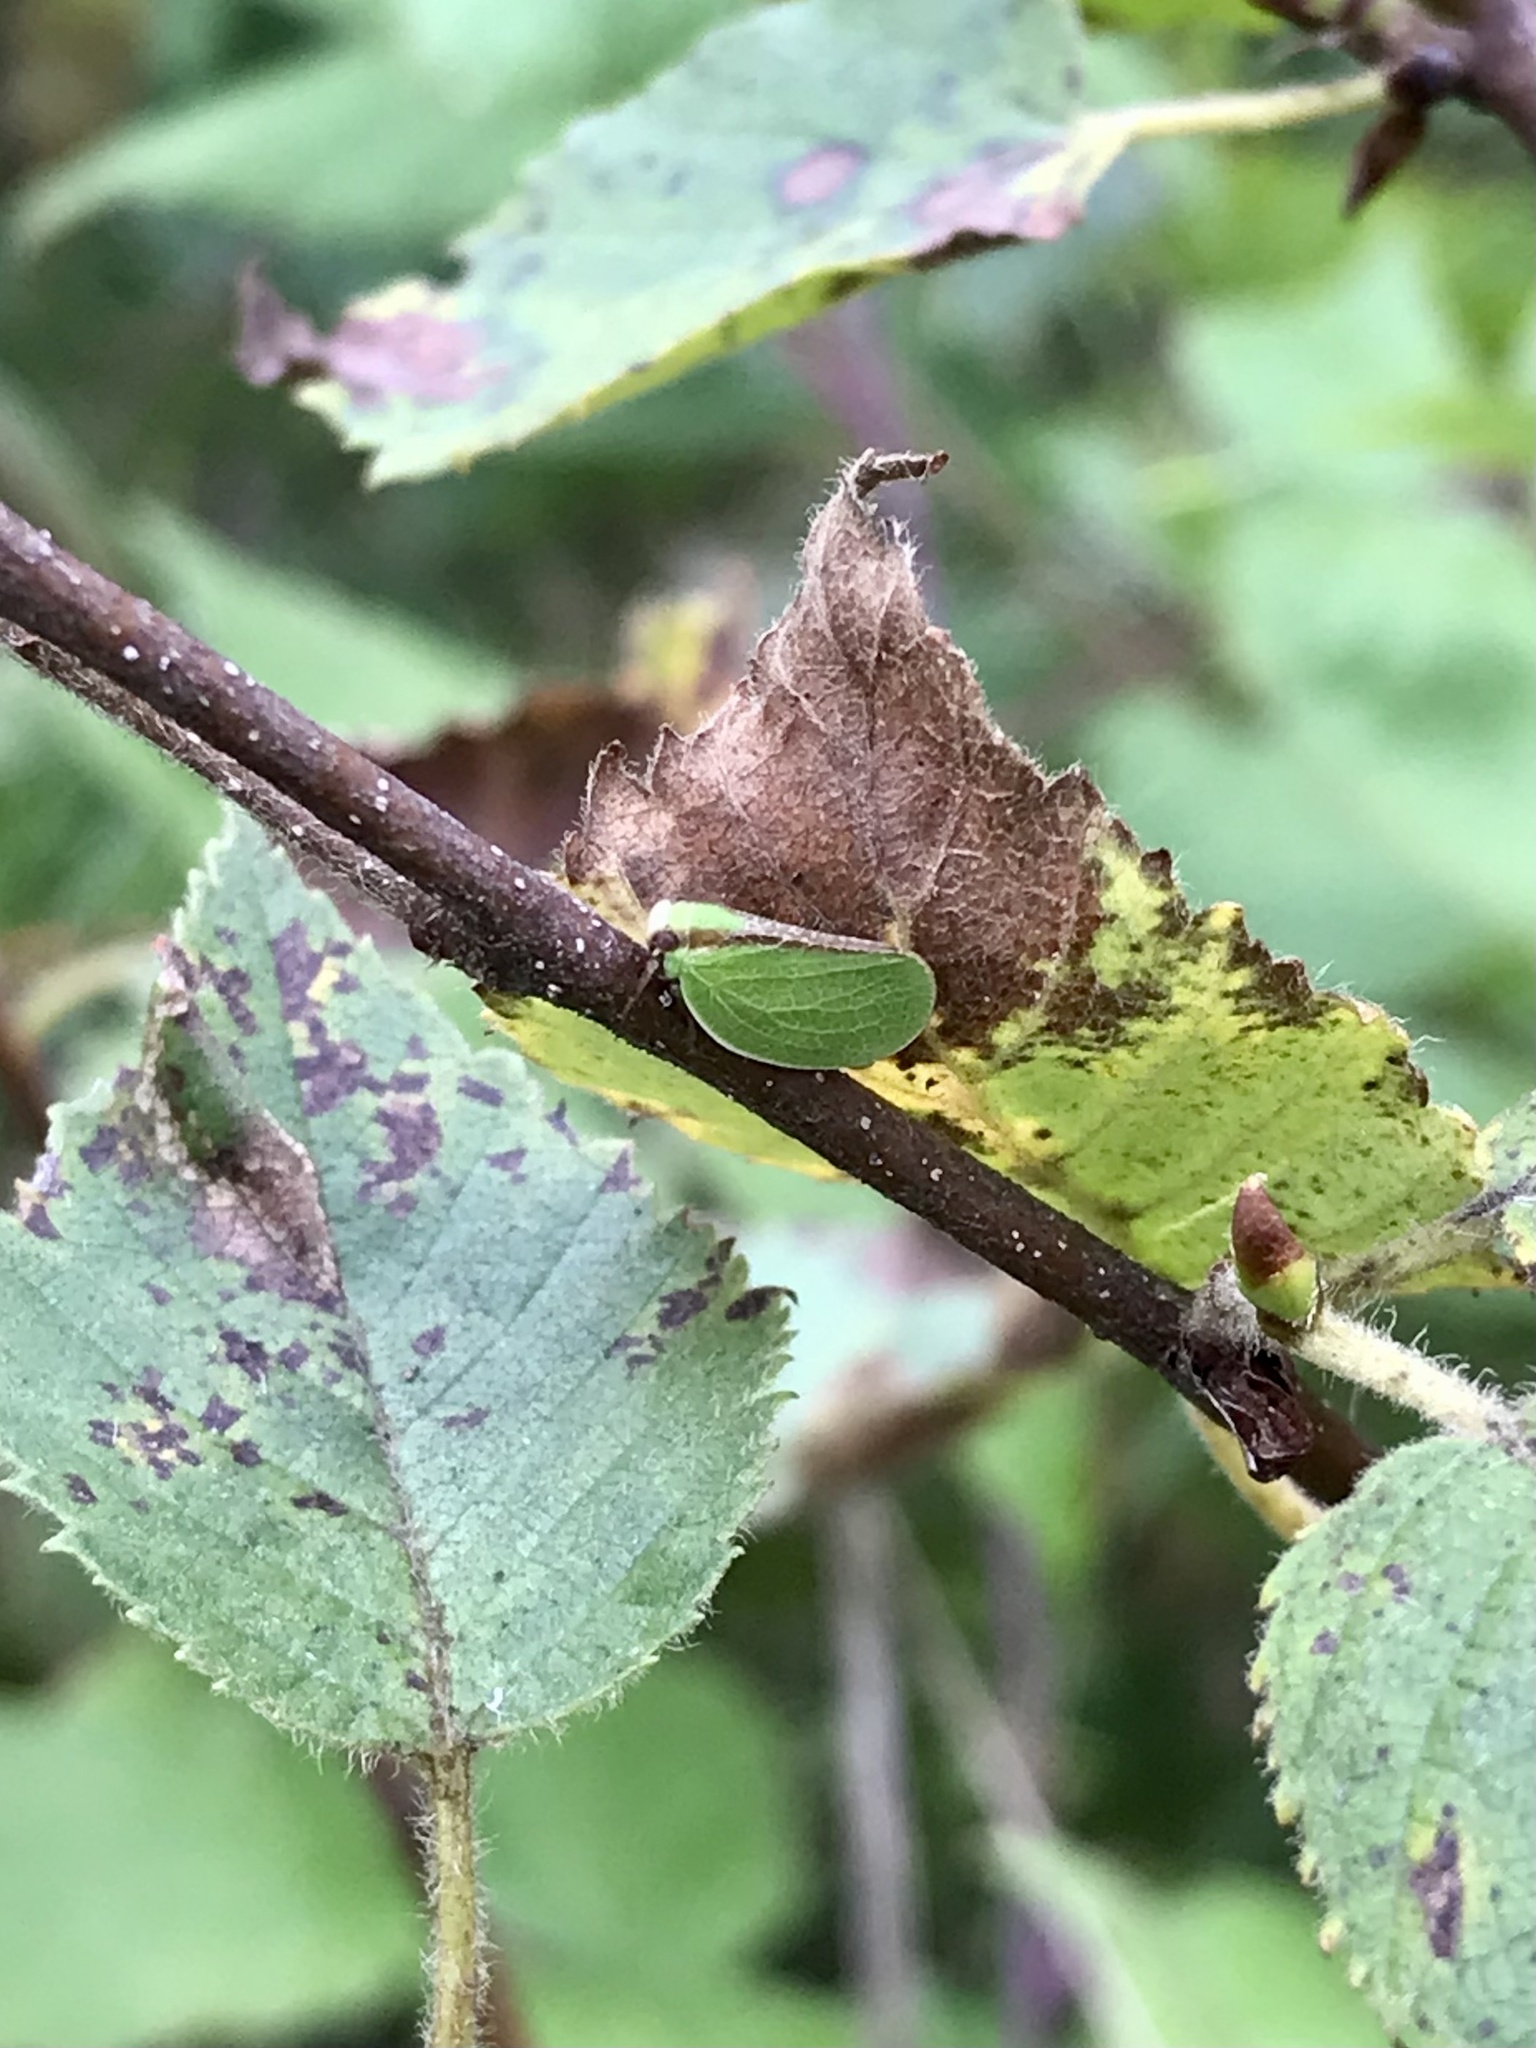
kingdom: Animalia
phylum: Arthropoda
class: Insecta
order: Hemiptera
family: Acanaloniidae
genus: Acanalonia
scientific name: Acanalonia bivittata
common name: Two-striped planthopper
